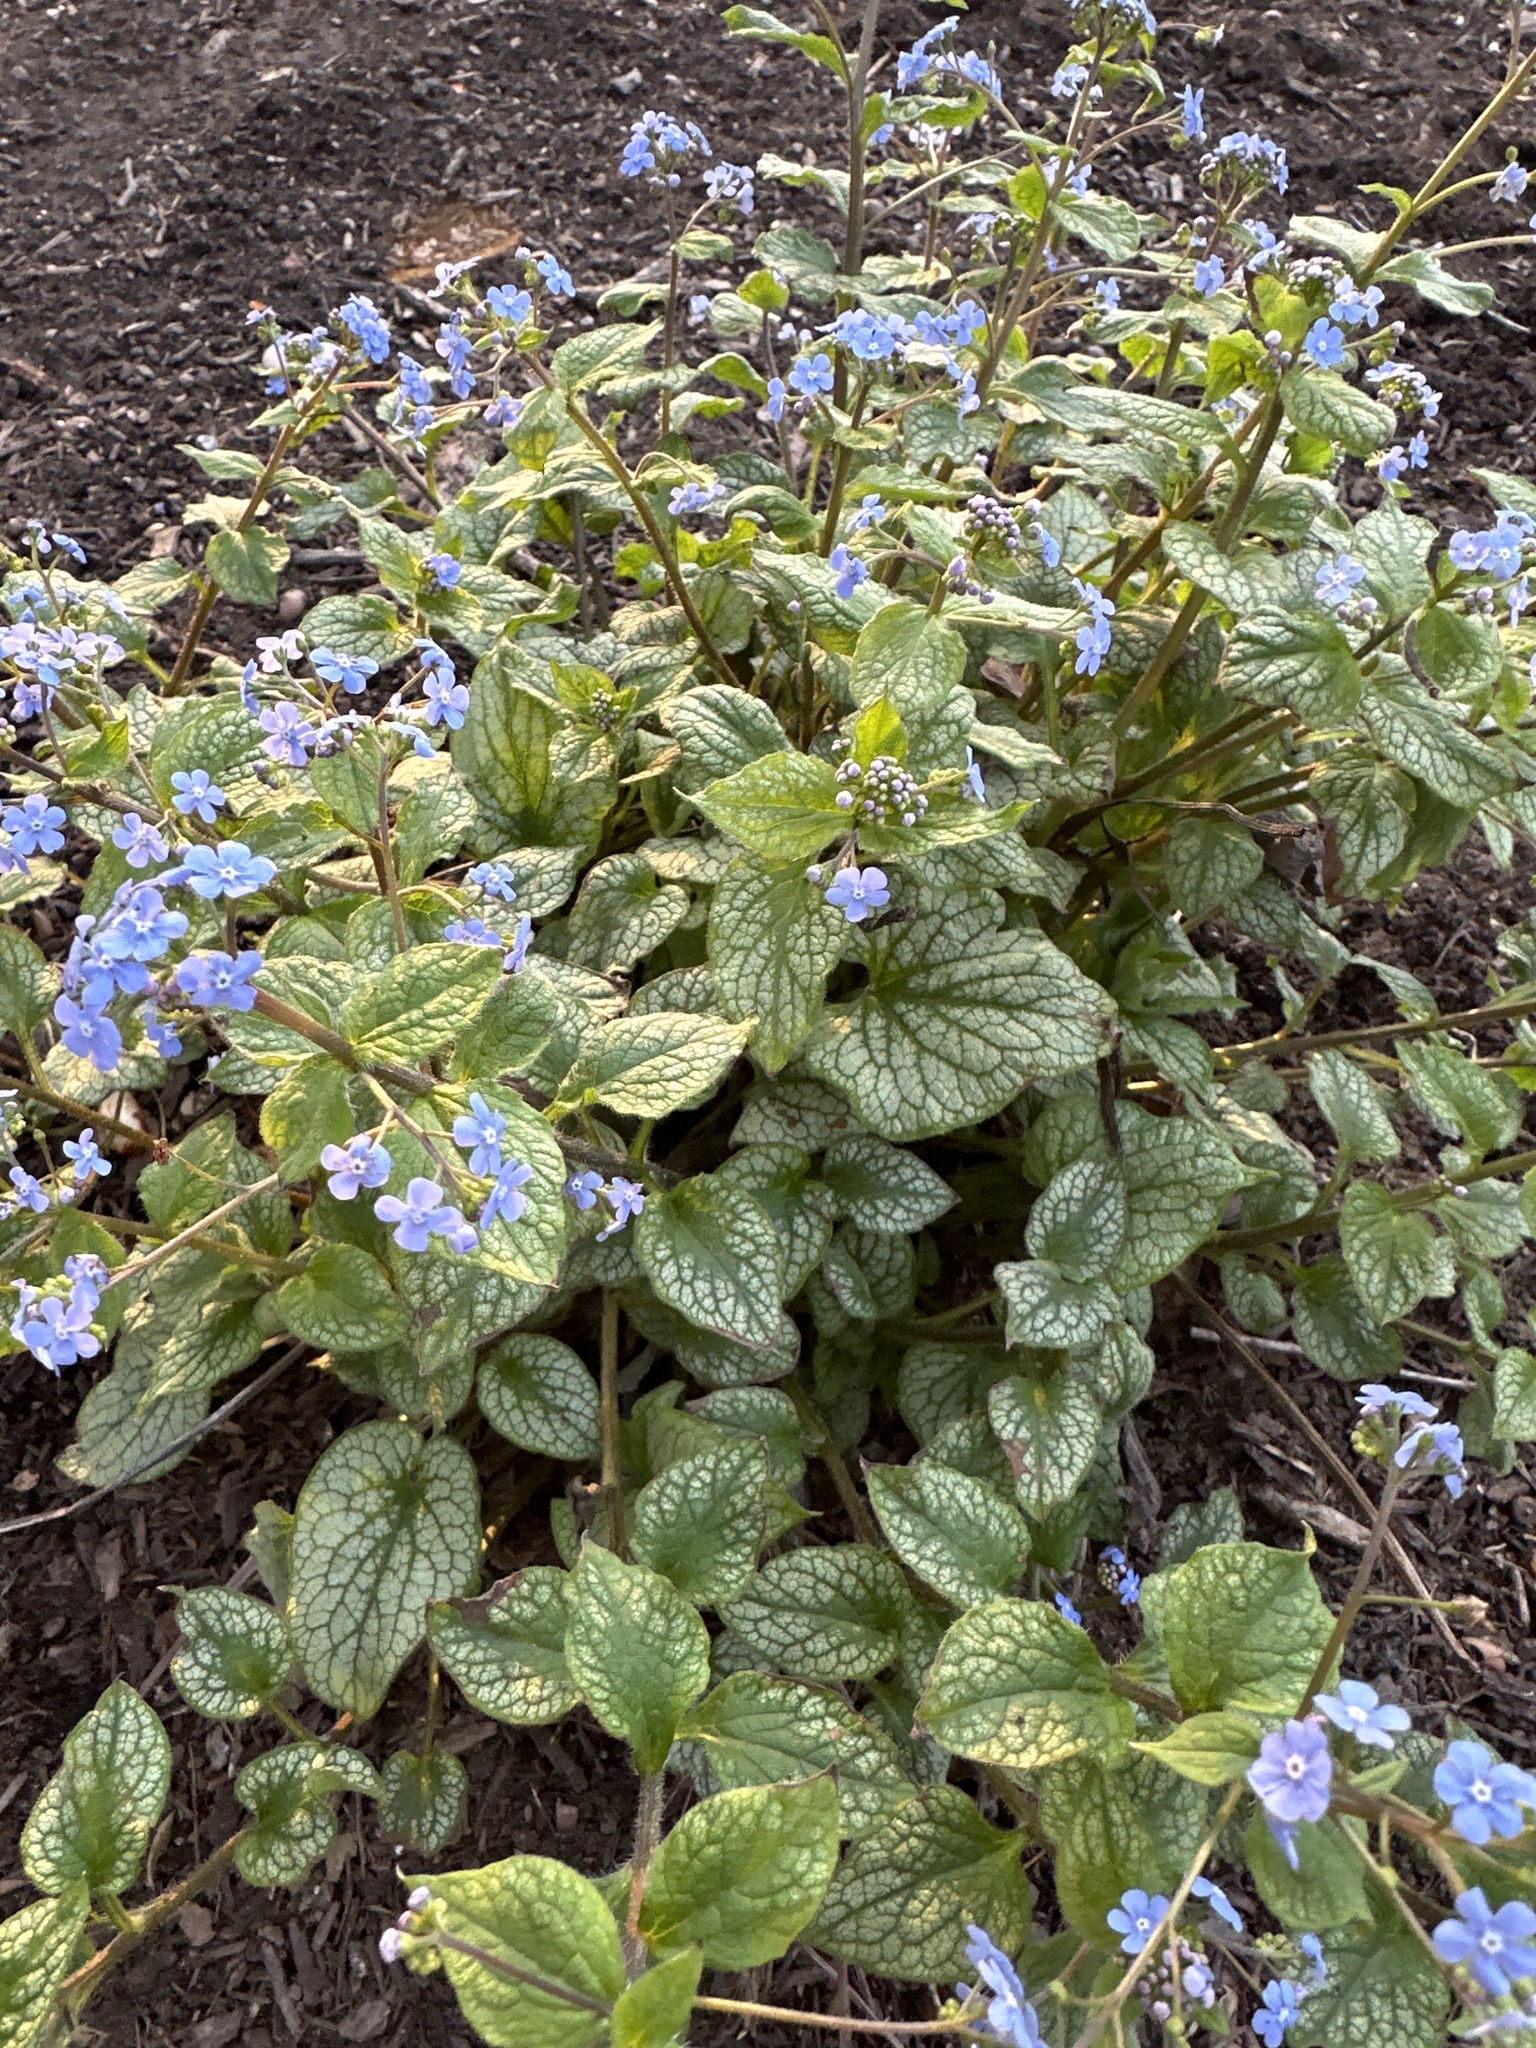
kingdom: Plantae
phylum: Tracheophyta
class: Magnoliopsida
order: Boraginales
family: Boraginaceae
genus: Brunnera
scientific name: Brunnera macrophylla
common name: Great forget-me-not
